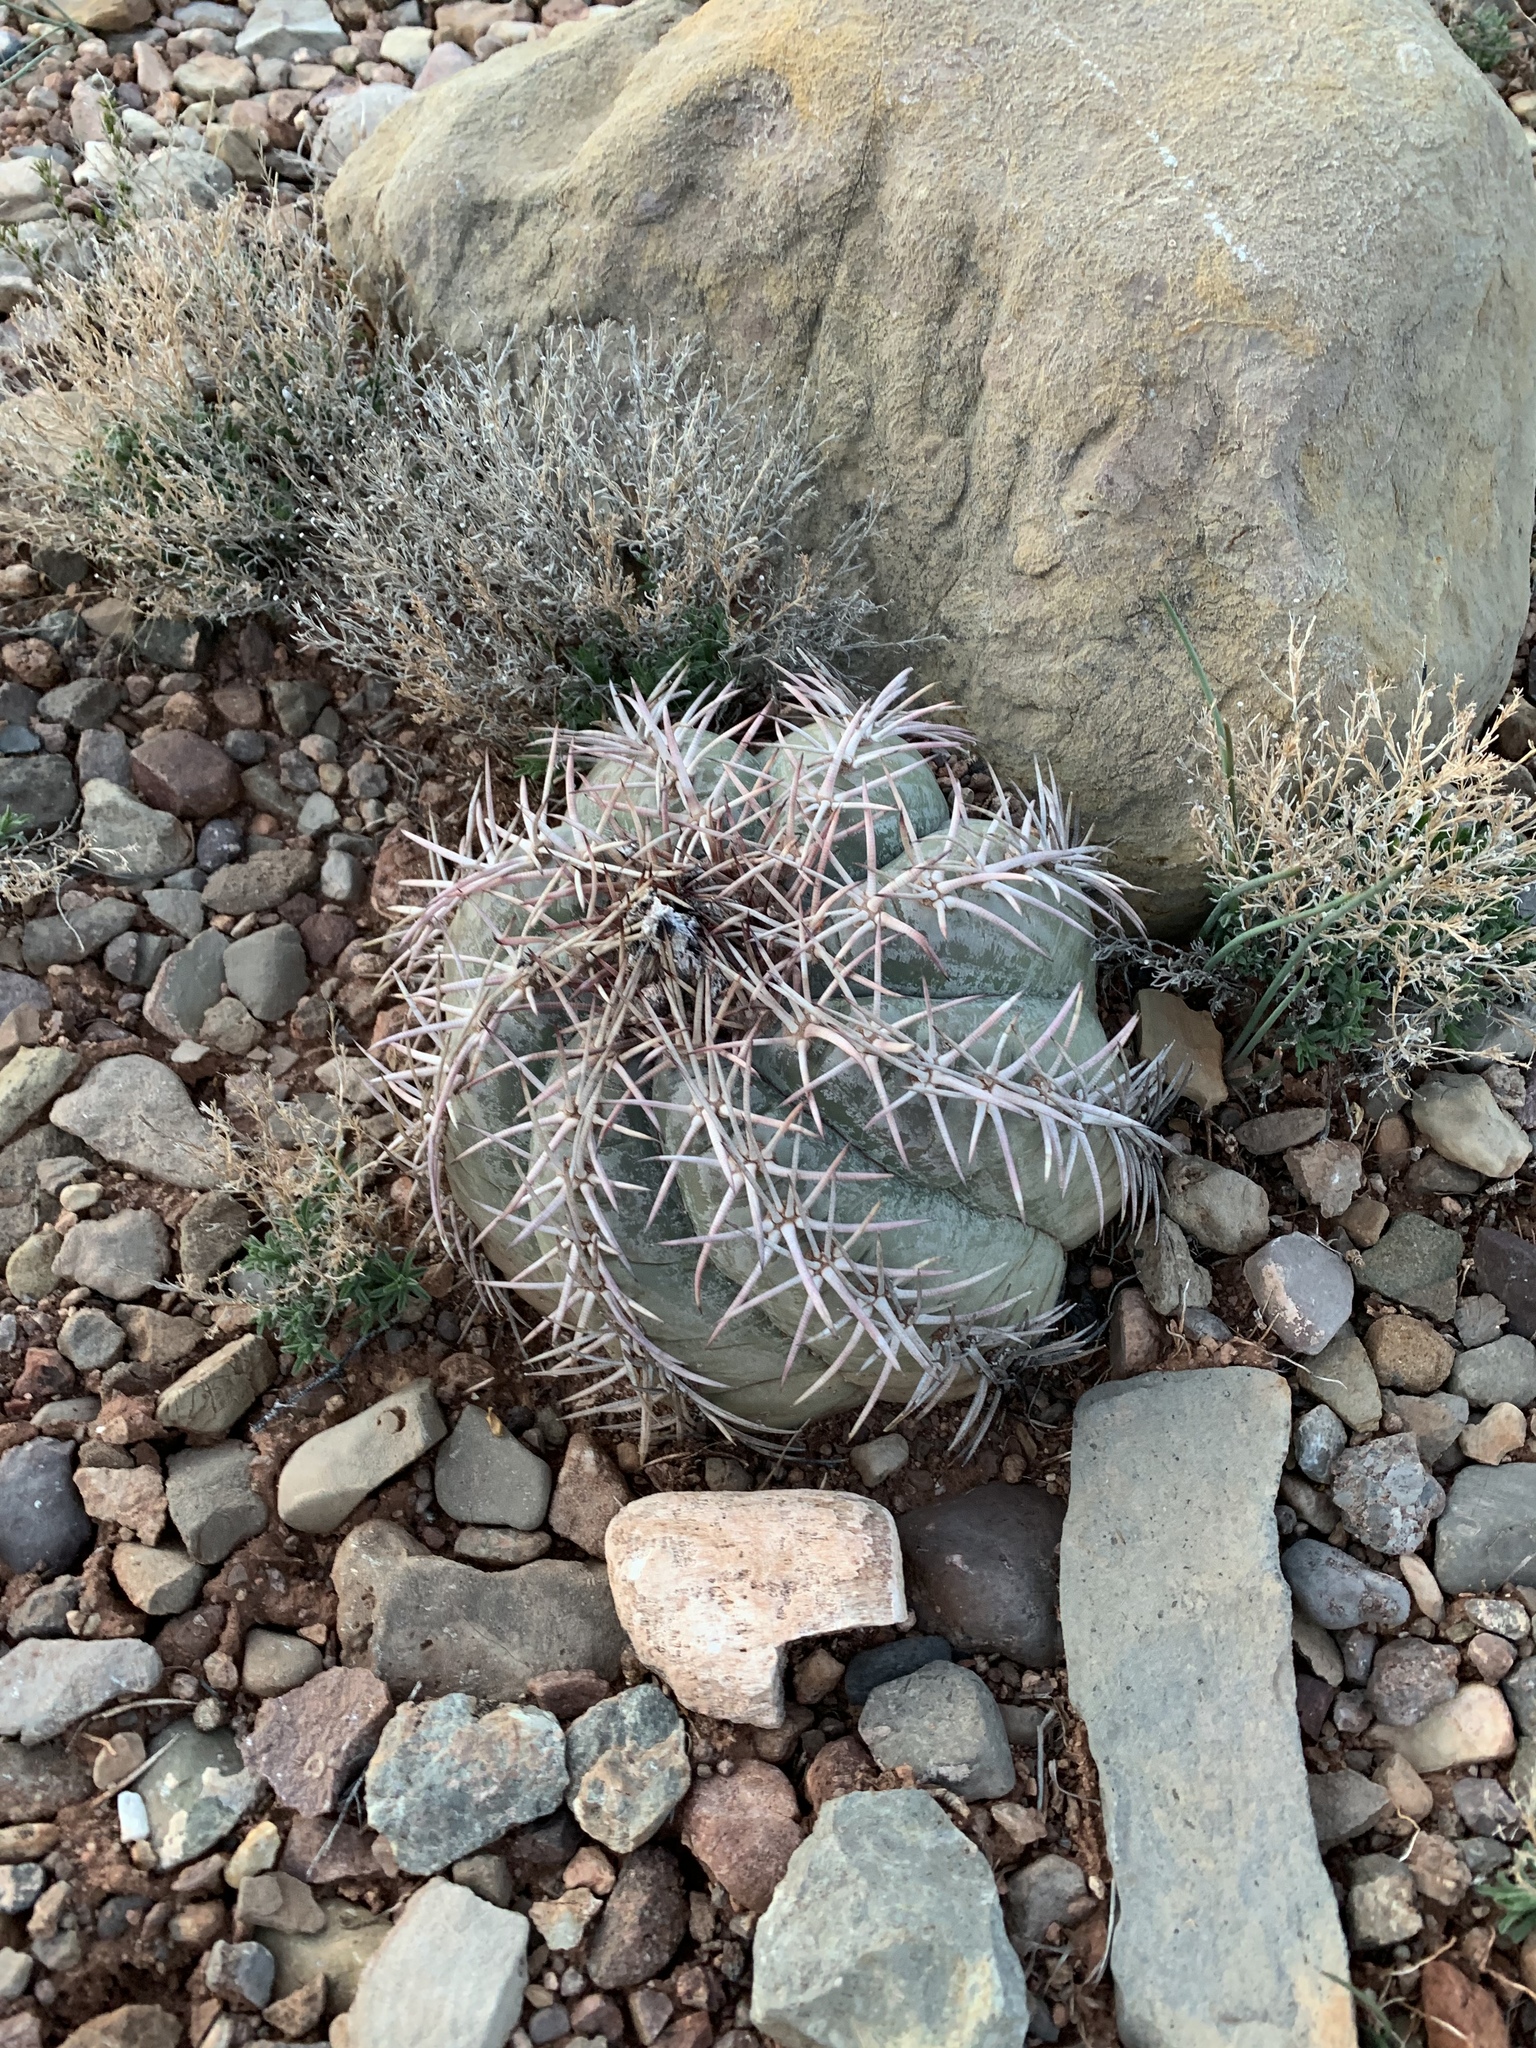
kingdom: Plantae
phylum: Tracheophyta
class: Magnoliopsida
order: Caryophyllales
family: Cactaceae
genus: Echinocactus
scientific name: Echinocactus horizonthalonius
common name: Devilshead
